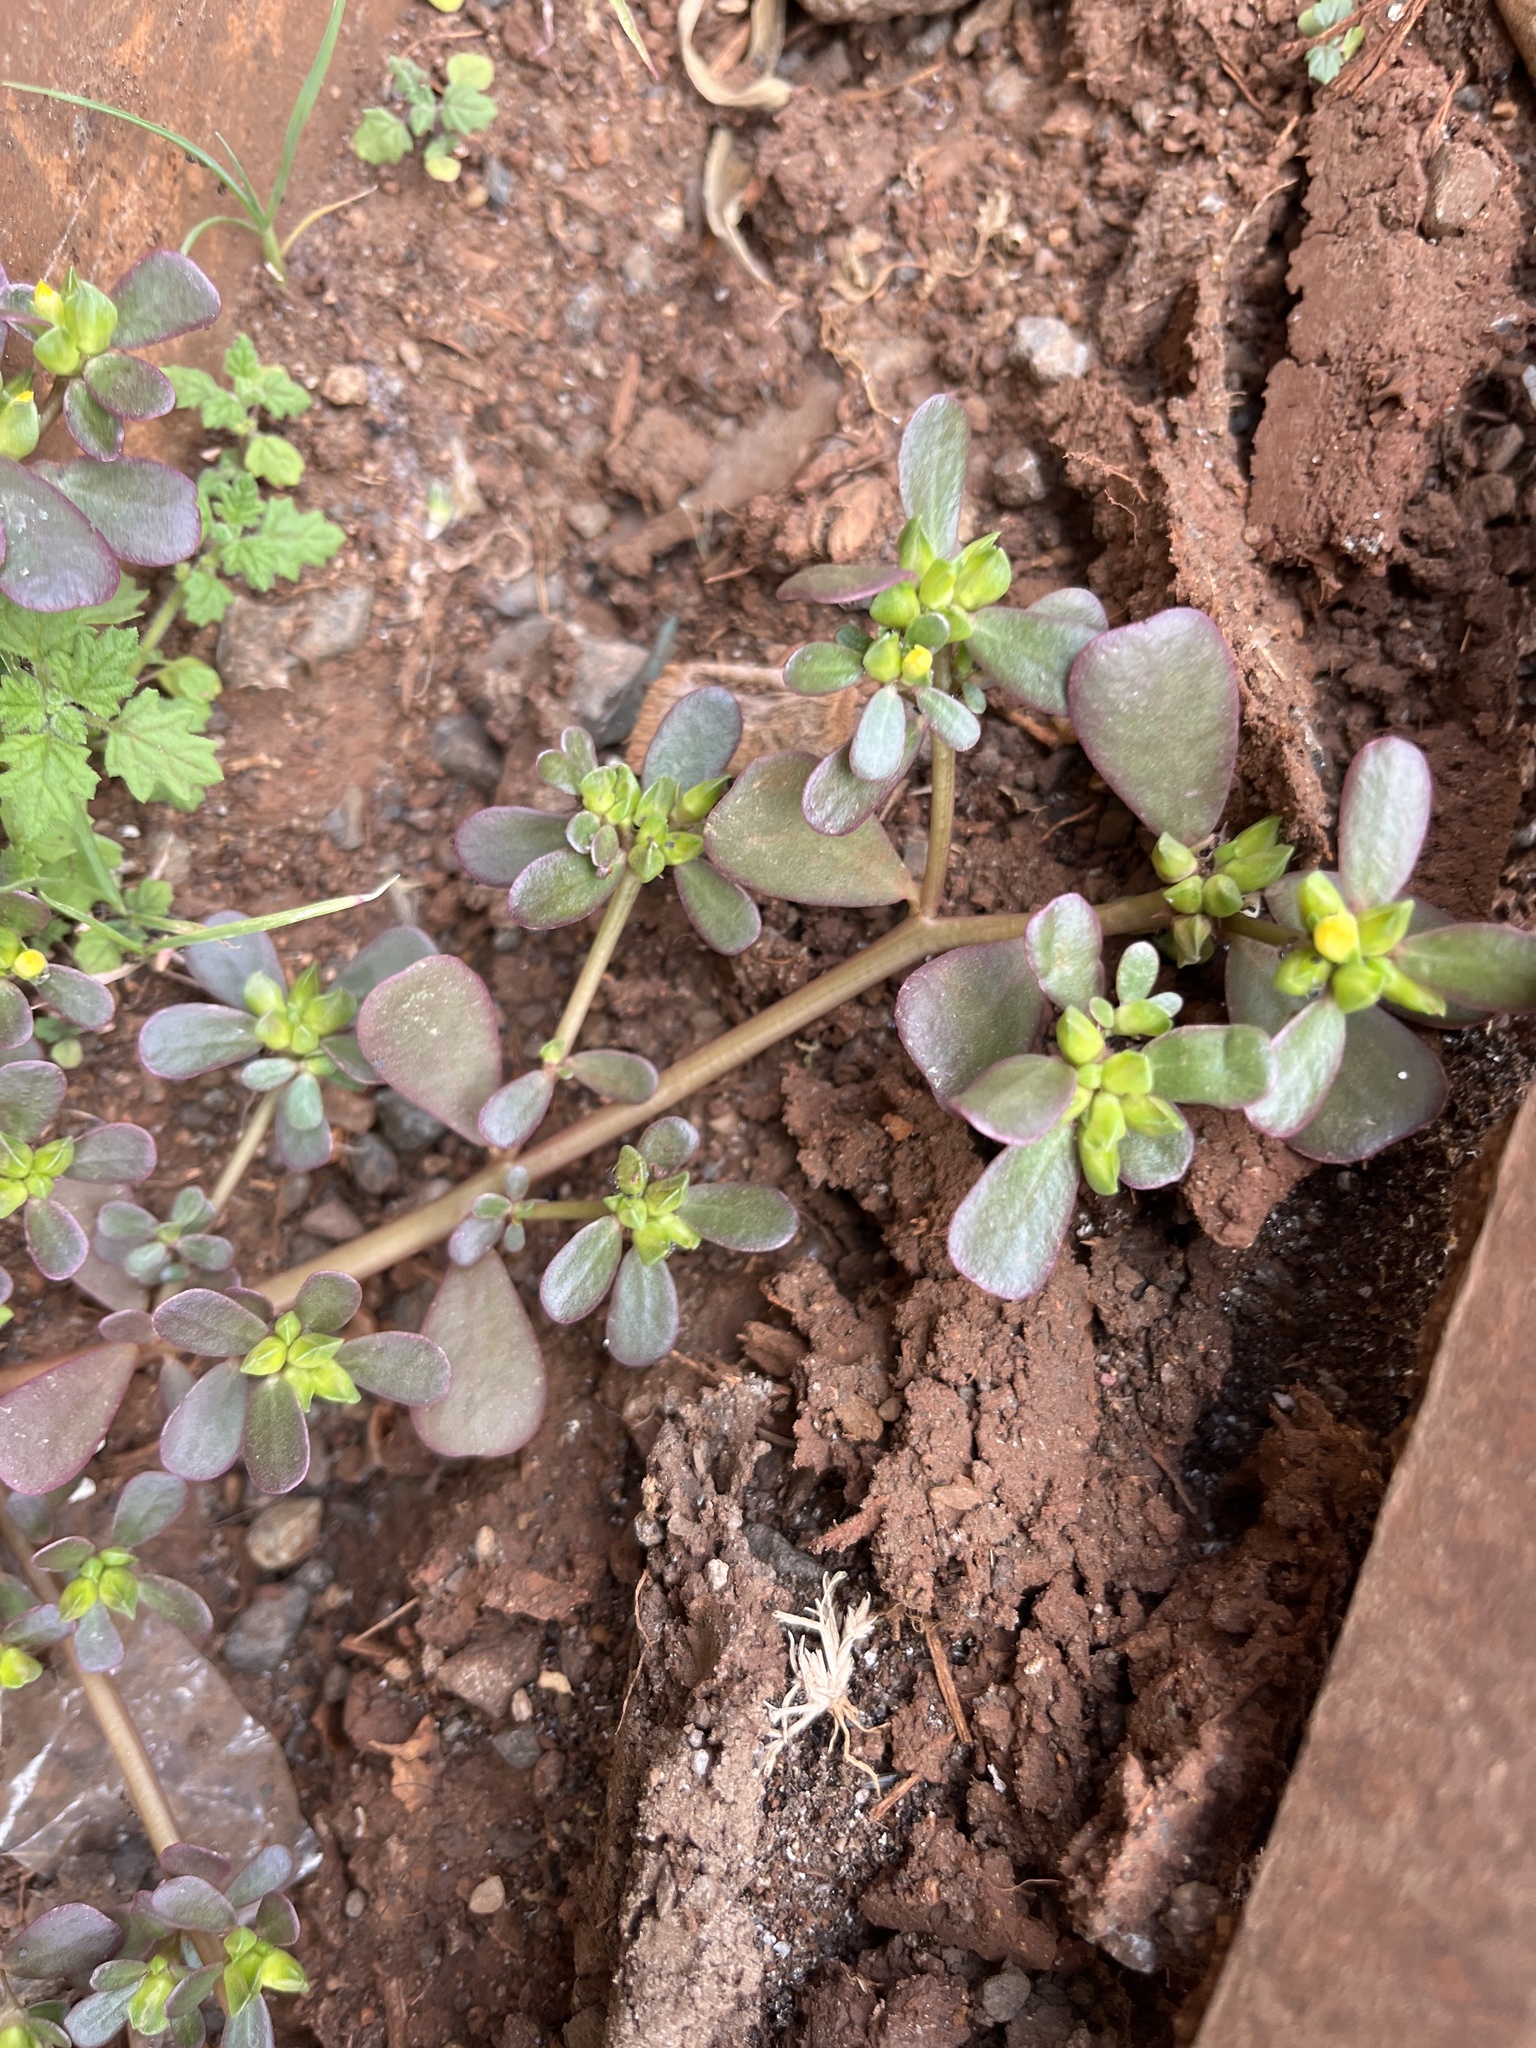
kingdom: Plantae
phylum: Tracheophyta
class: Magnoliopsida
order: Caryophyllales
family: Portulacaceae
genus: Portulaca
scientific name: Portulaca oleracea
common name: Common purslane
